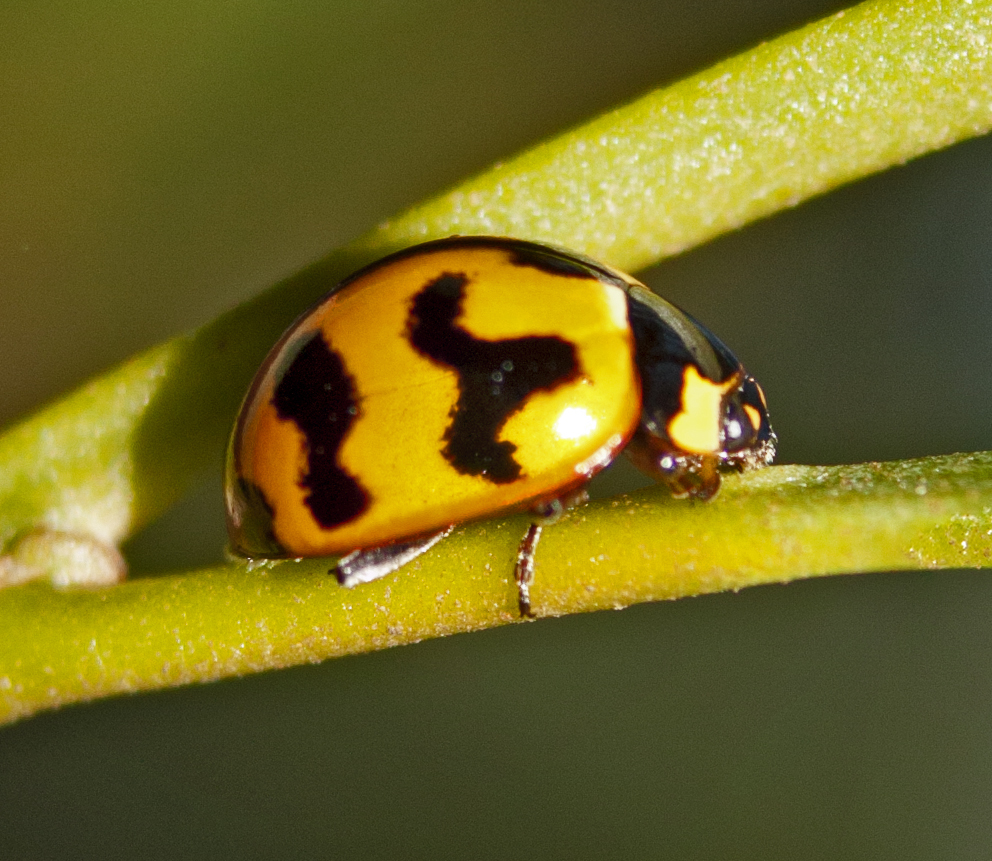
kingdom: Animalia
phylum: Arthropoda
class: Insecta
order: Coleoptera
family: Coccinellidae
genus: Coccinella
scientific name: Coccinella transversalis
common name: Transverse lady beetle
